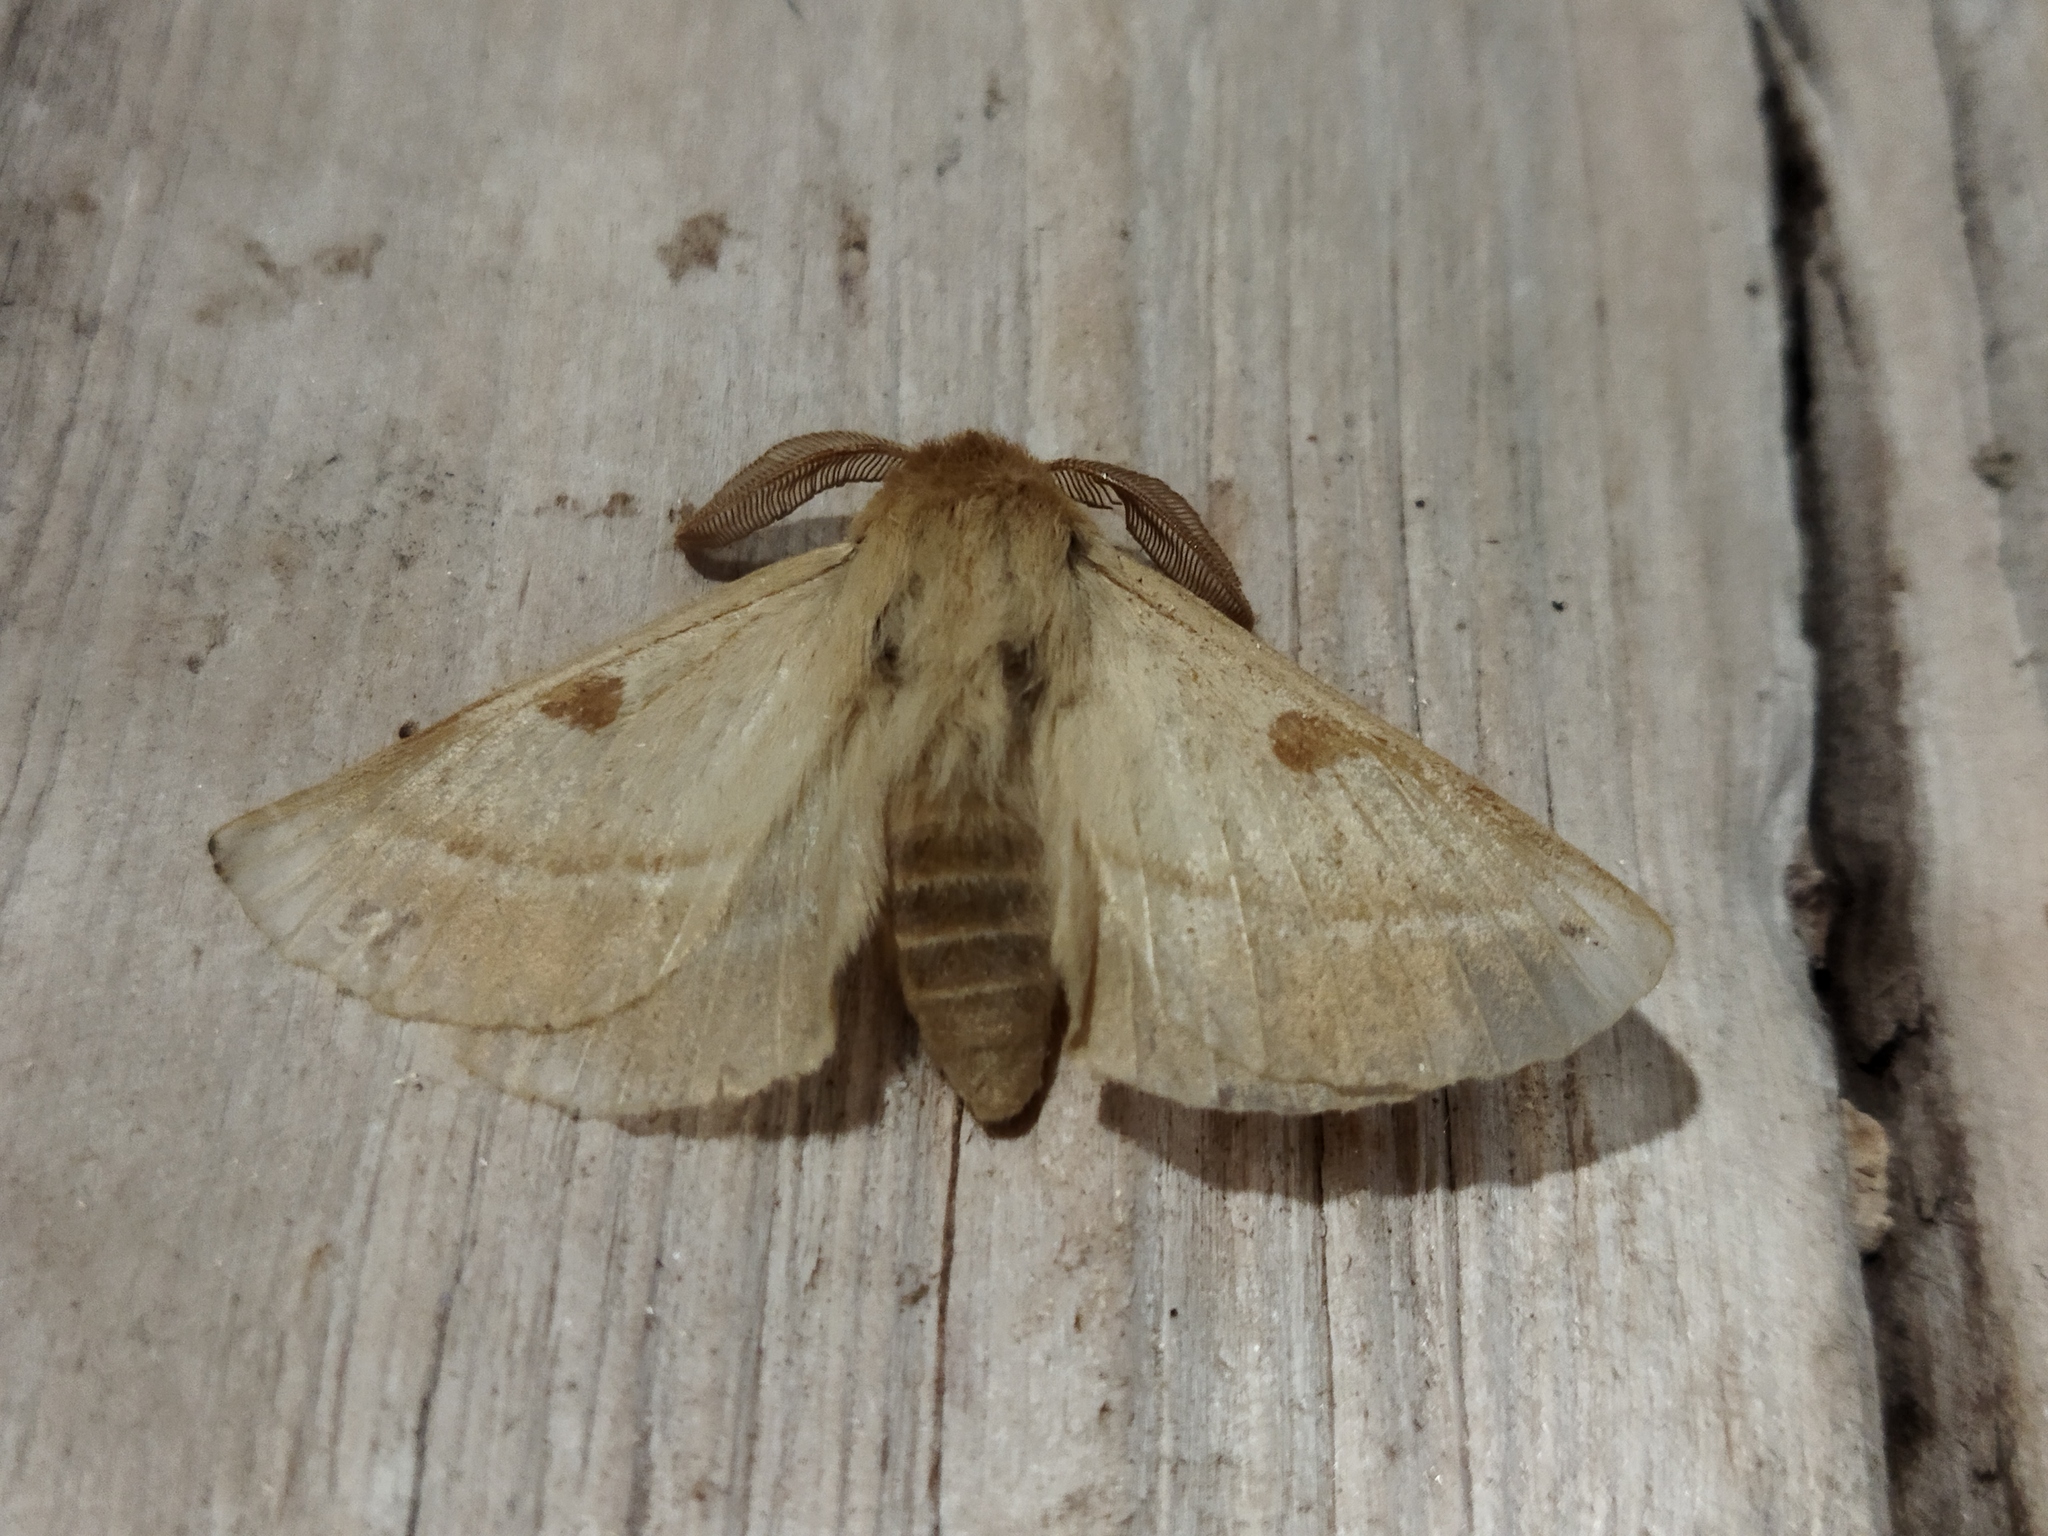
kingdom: Animalia
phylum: Arthropoda
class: Insecta
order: Lepidoptera
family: Brahmaeidae
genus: Lemonia
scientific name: Lemonia balcanica
